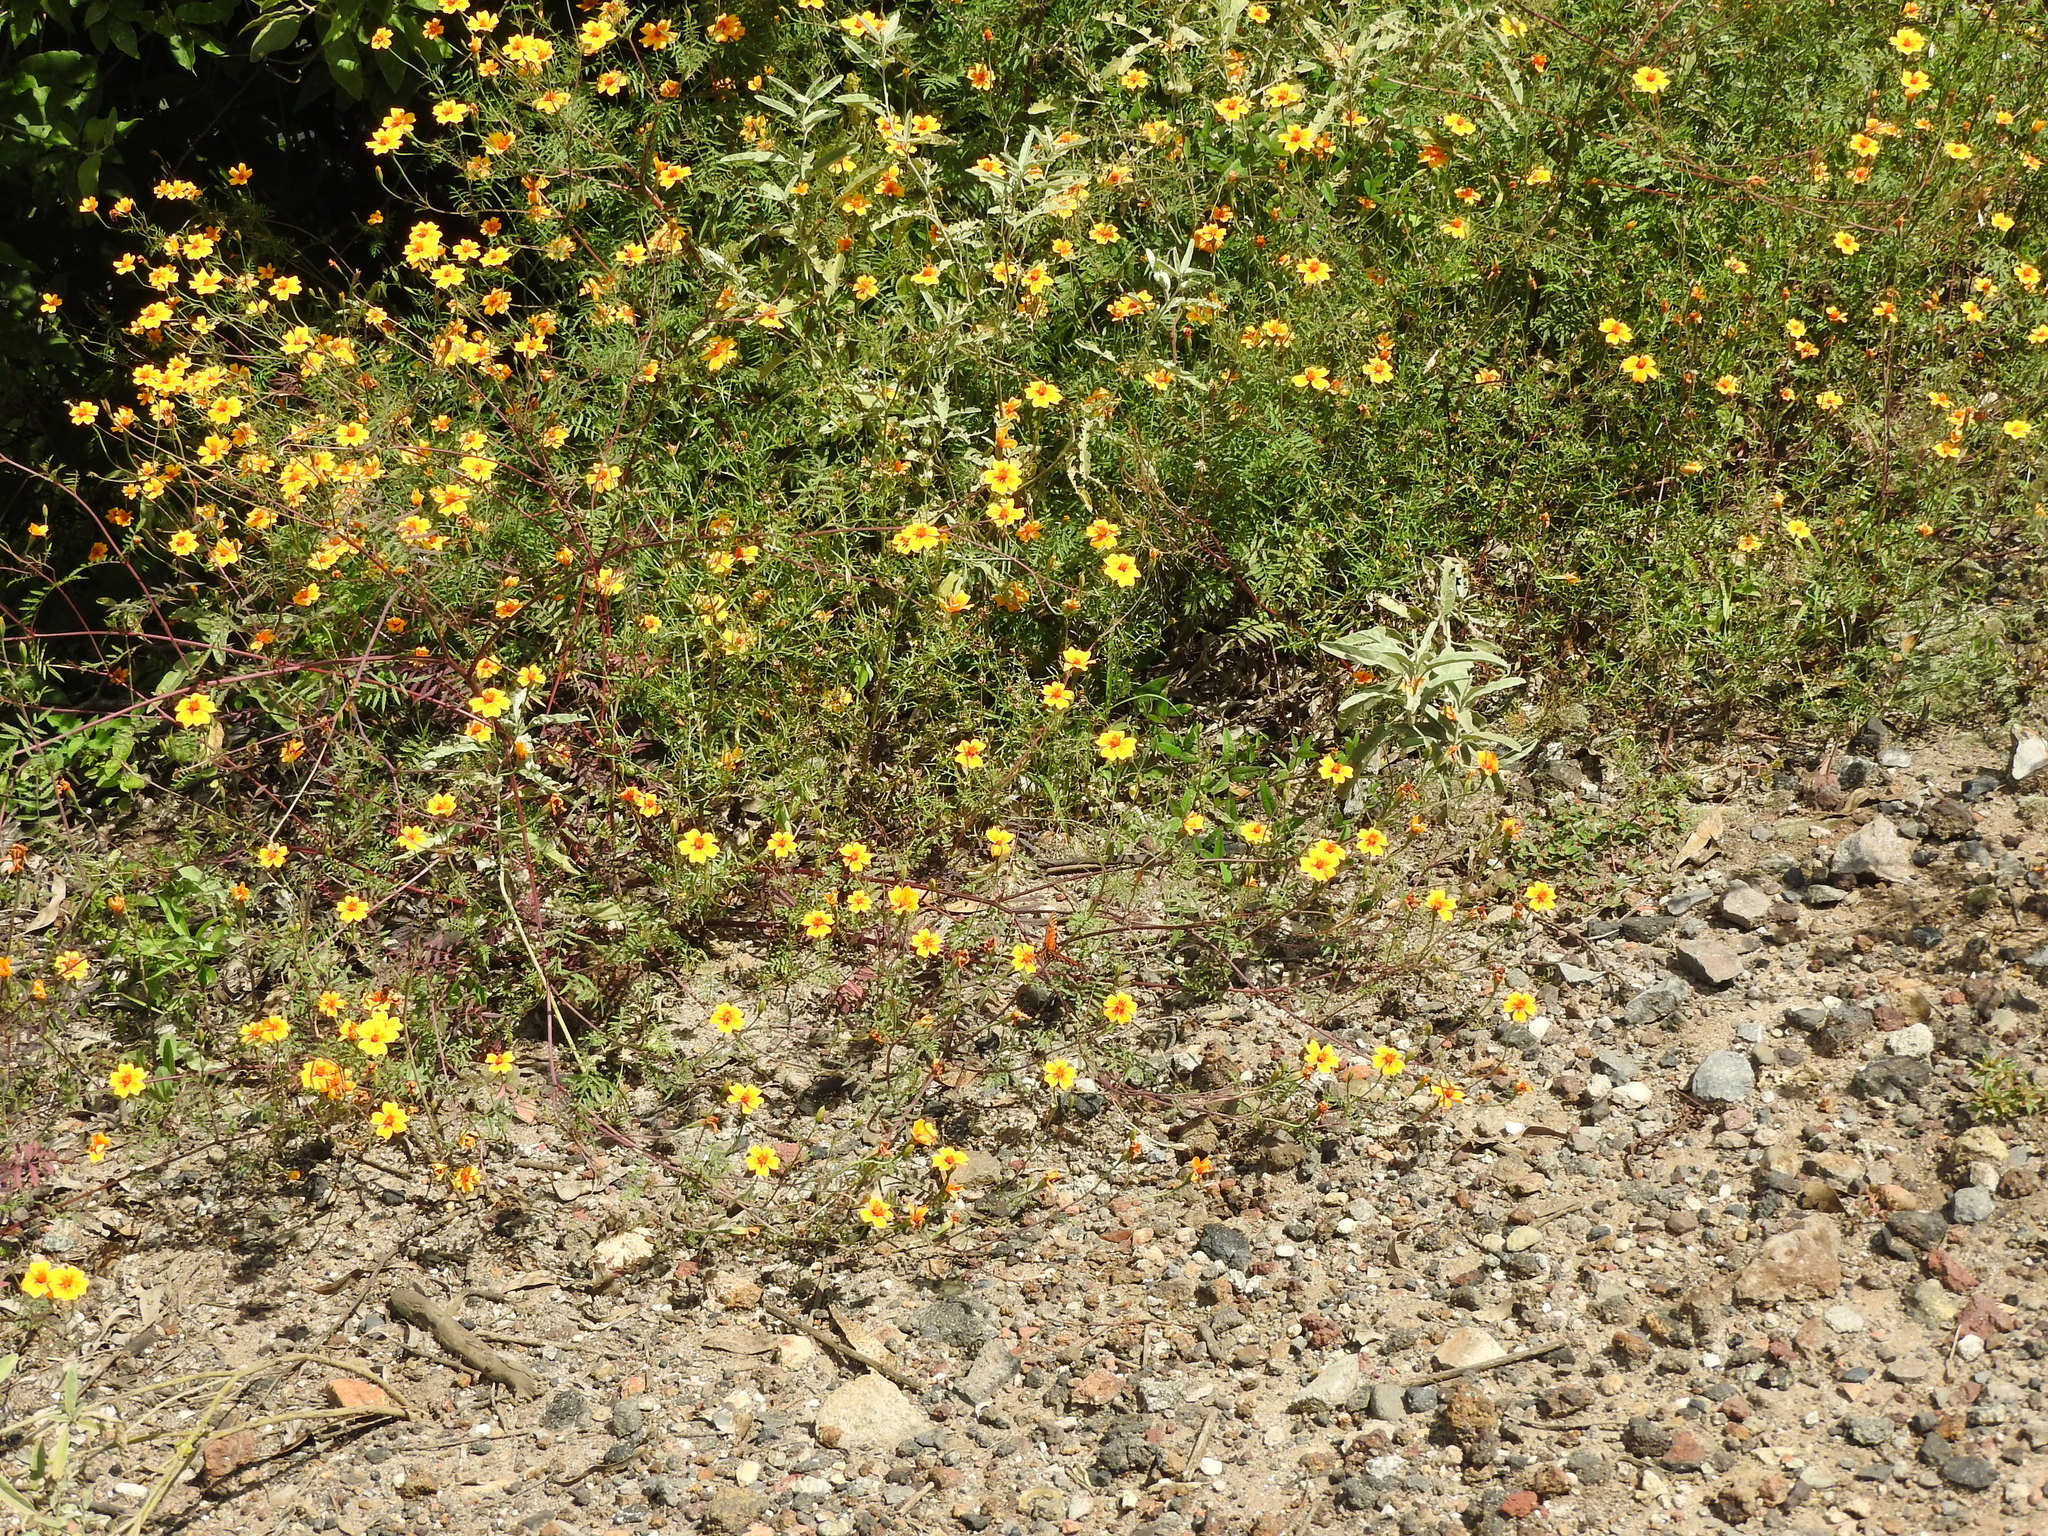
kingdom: Plantae
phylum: Tracheophyta
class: Magnoliopsida
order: Asterales
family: Asteraceae
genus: Tagetes
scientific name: Tagetes lunulata
